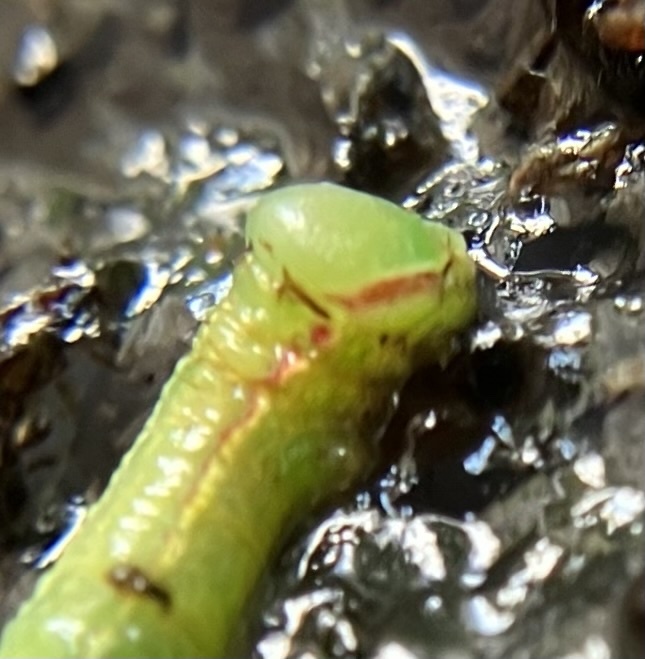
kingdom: Animalia
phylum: Arthropoda
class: Insecta
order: Lepidoptera
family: Notodontidae
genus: Peridea
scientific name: Peridea angulosa
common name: Angulose prominent
